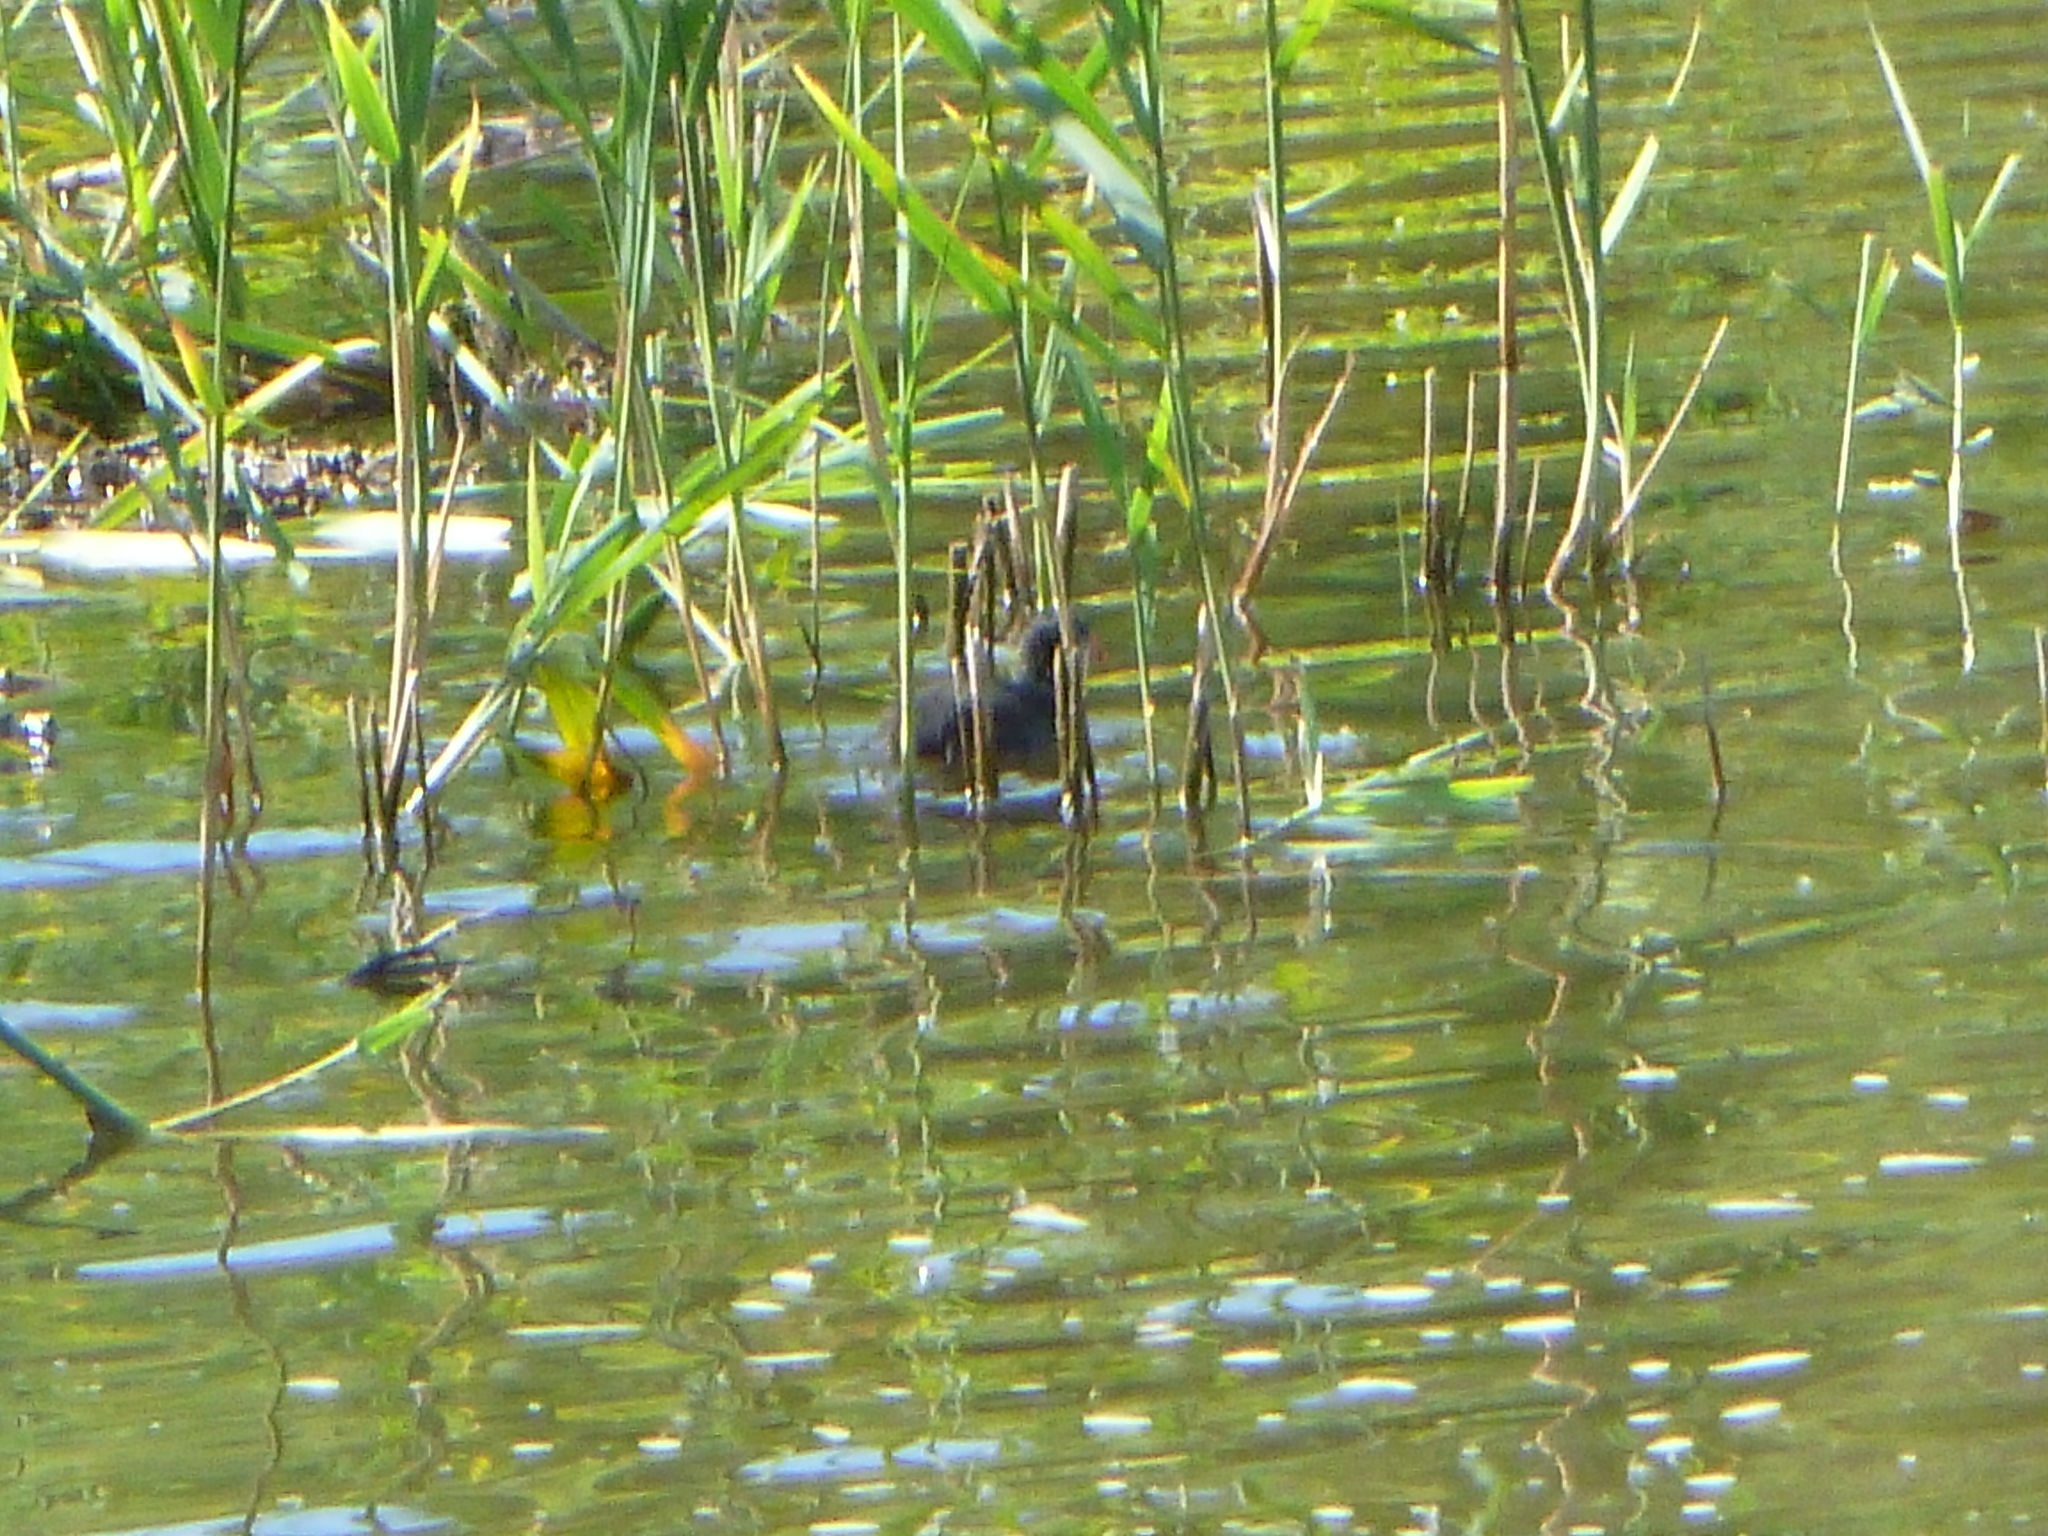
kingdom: Animalia
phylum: Chordata
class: Aves
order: Gruiformes
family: Rallidae
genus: Fulica
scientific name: Fulica atra
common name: Eurasian coot
